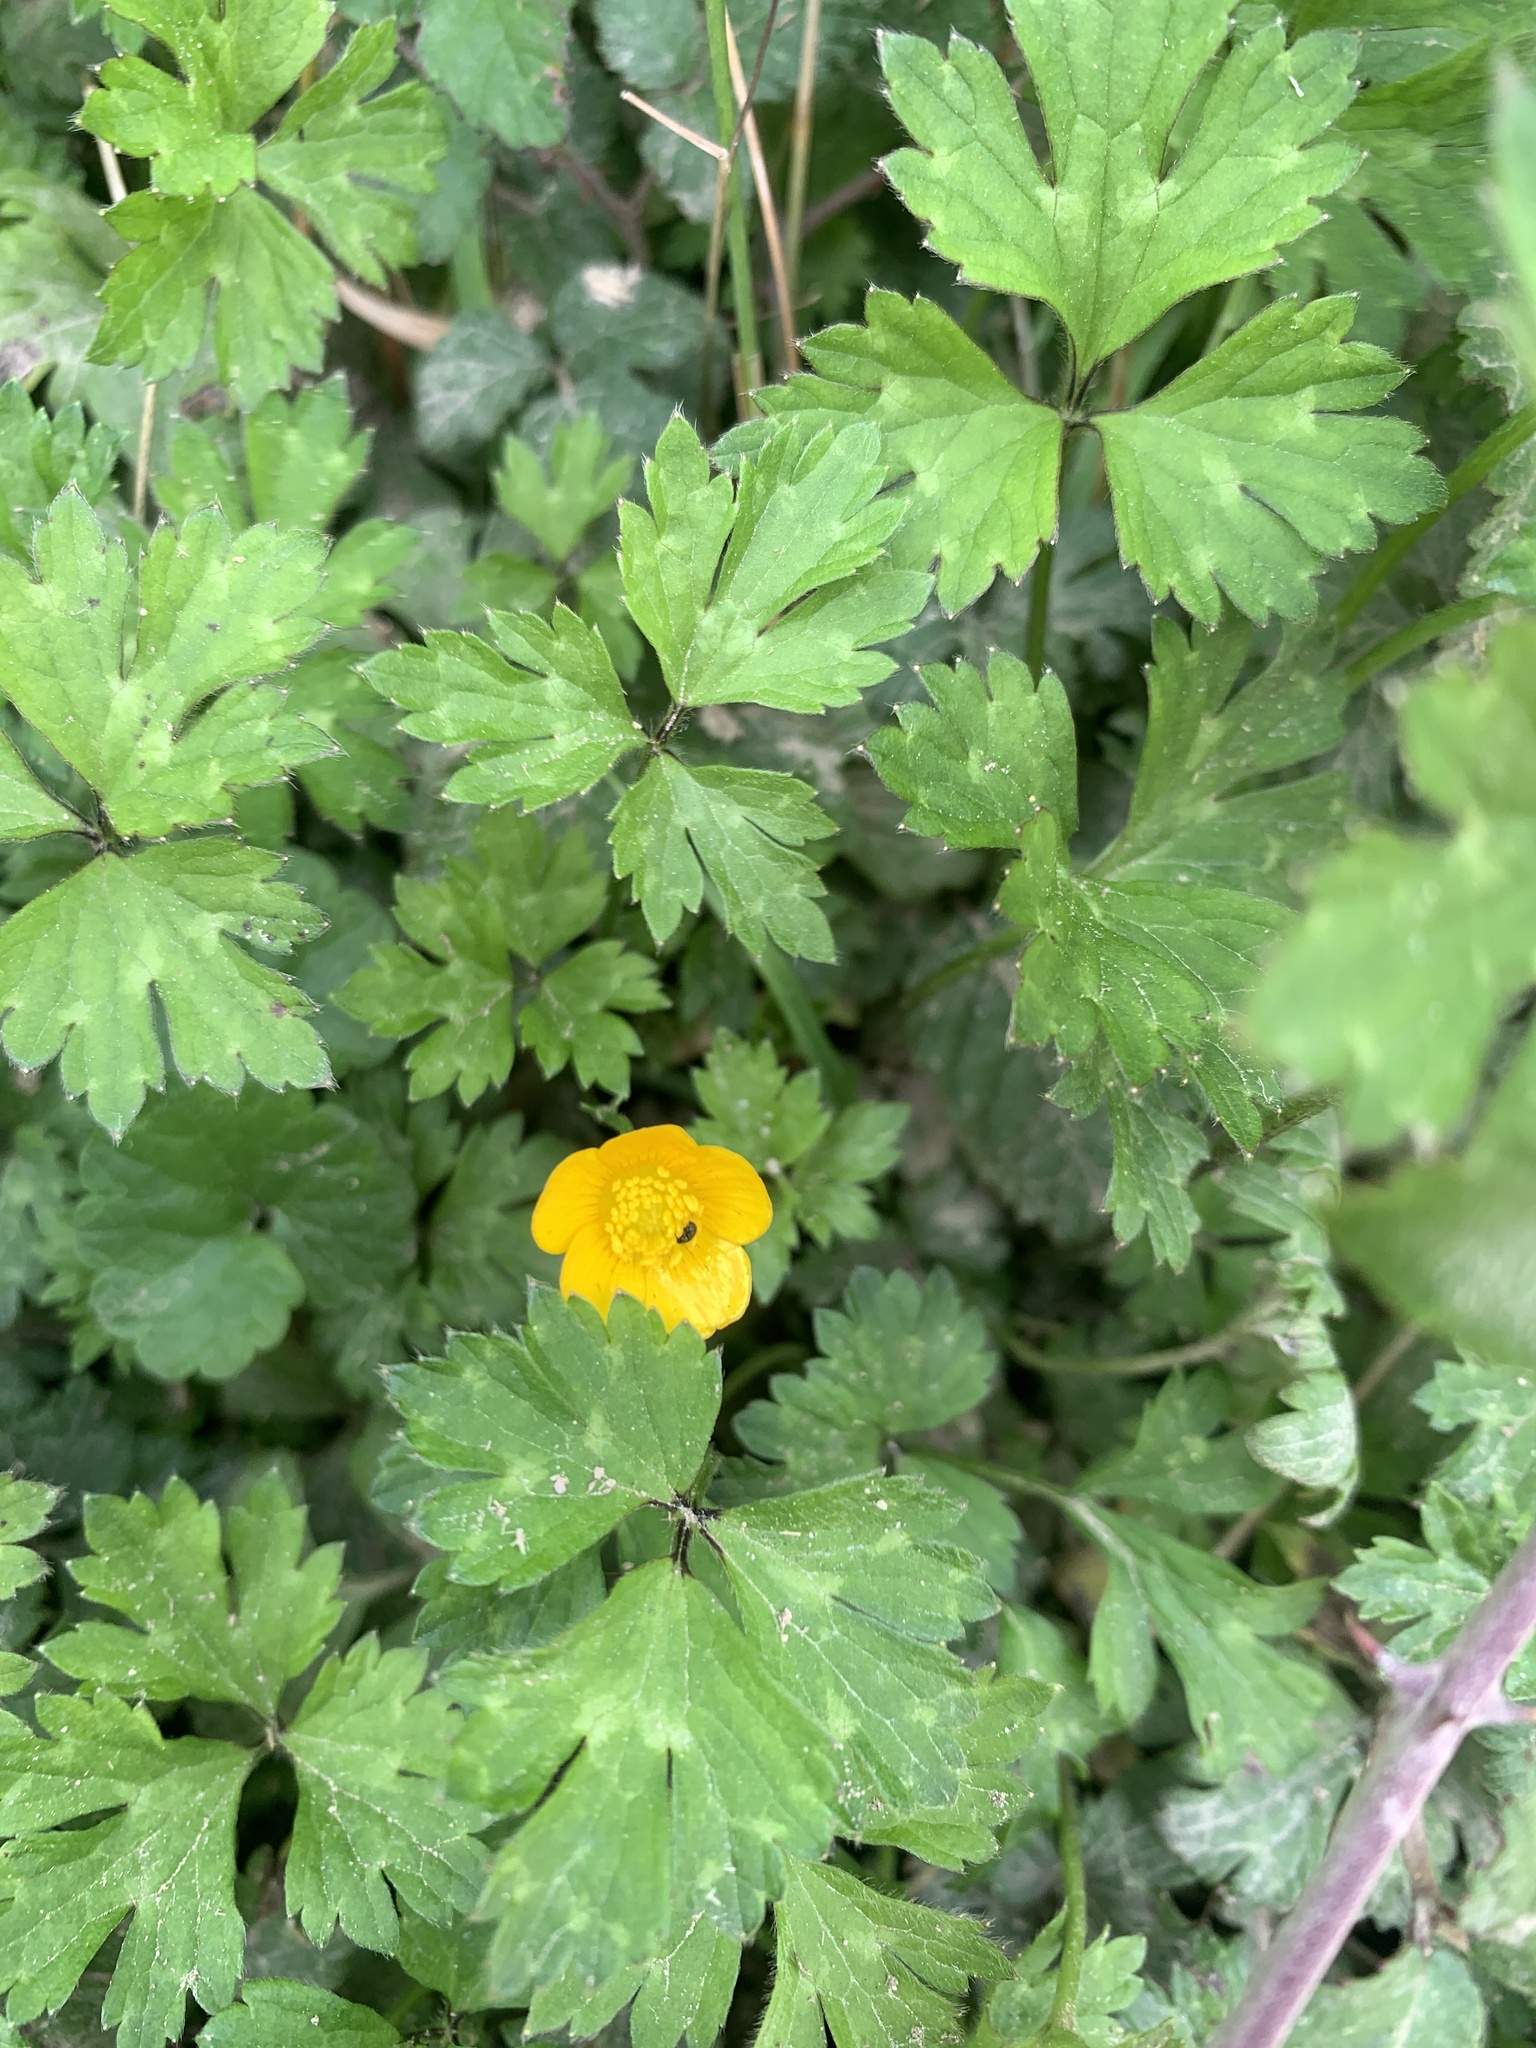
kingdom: Plantae
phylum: Tracheophyta
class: Magnoliopsida
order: Ranunculales
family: Ranunculaceae
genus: Ranunculus
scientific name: Ranunculus repens
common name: Creeping buttercup
